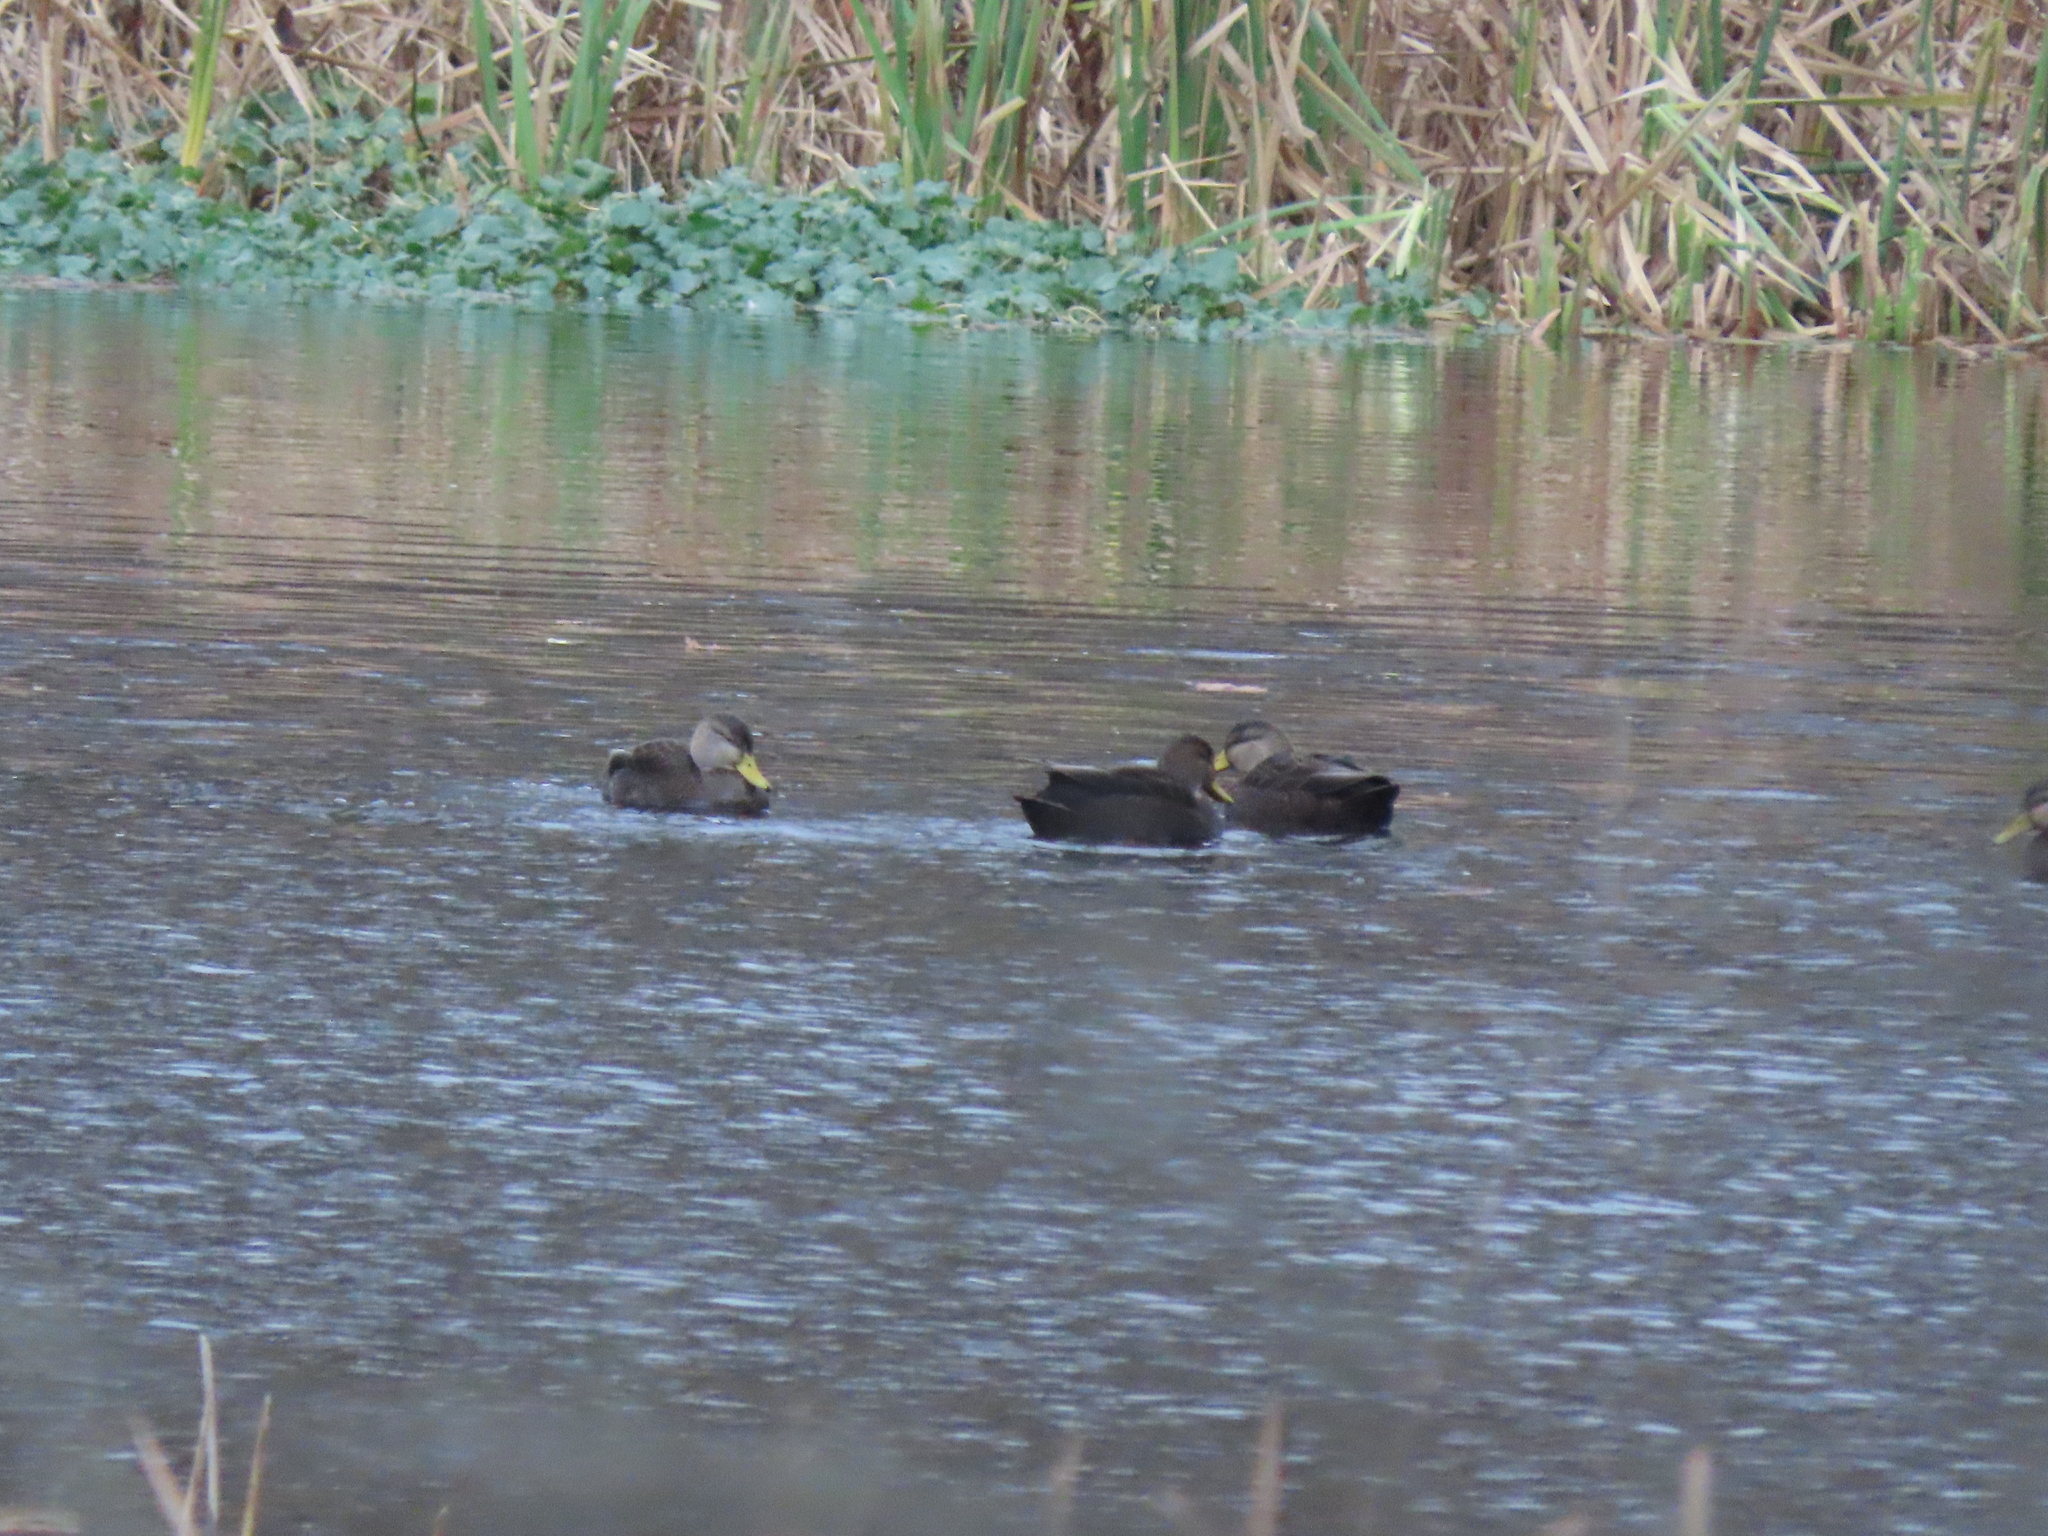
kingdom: Animalia
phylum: Chordata
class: Aves
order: Anseriformes
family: Anatidae
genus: Anas
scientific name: Anas rubripes
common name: American black duck
